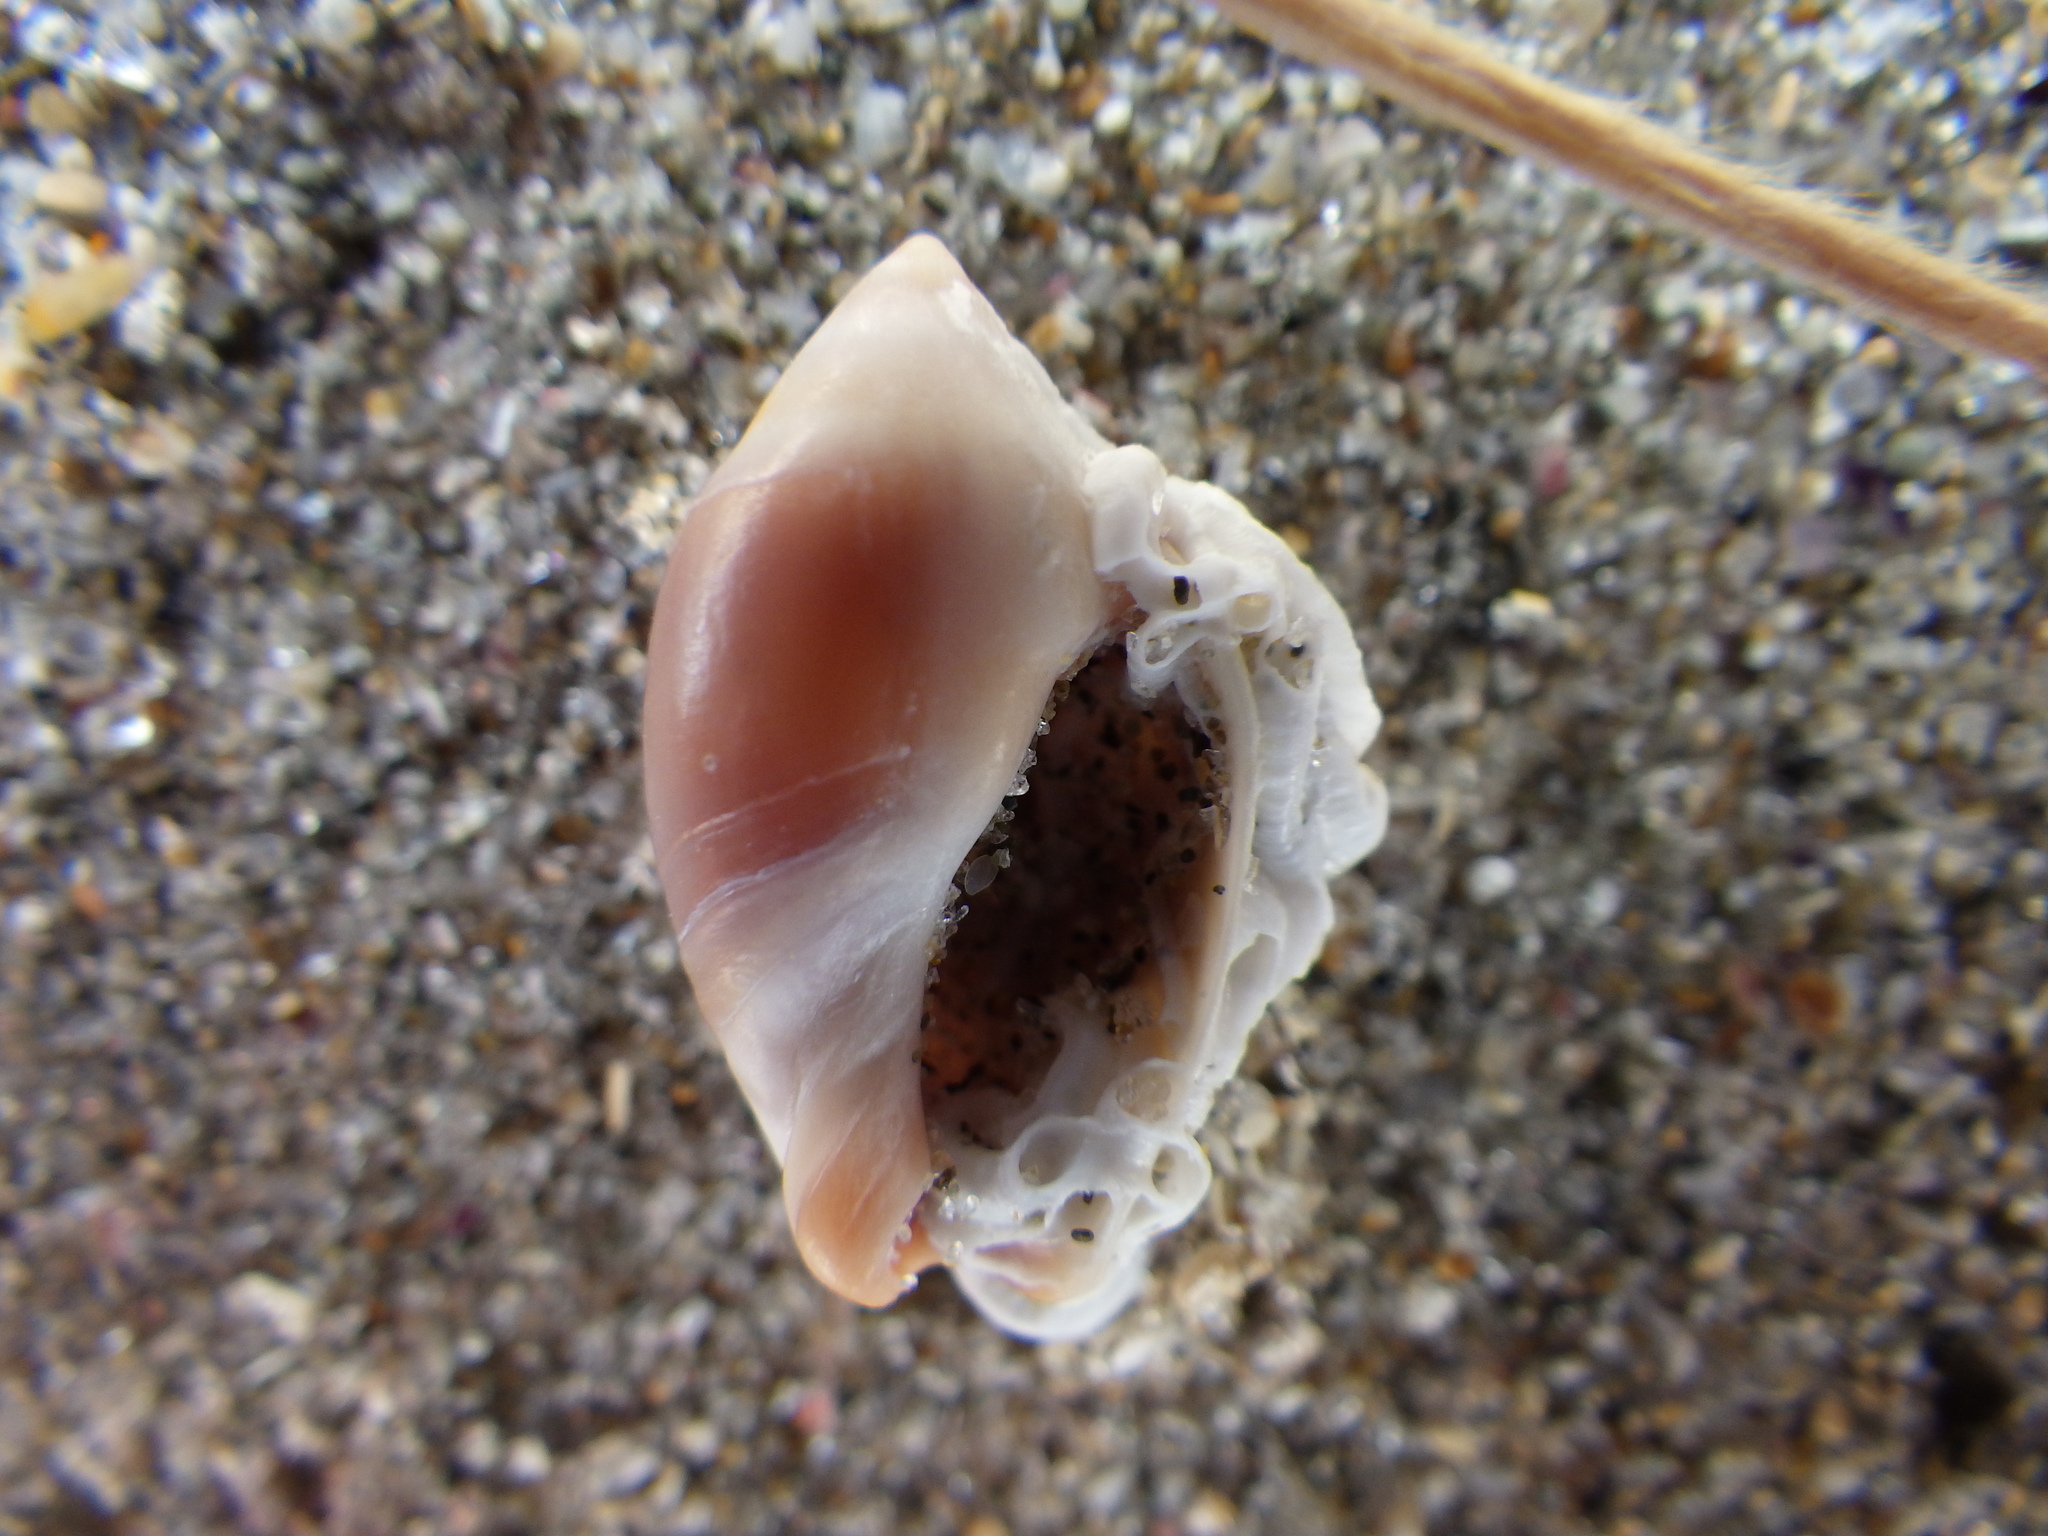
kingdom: Animalia
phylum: Mollusca
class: Gastropoda
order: Neogastropoda
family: Ancillariidae
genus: Amalda
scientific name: Amalda depressa
